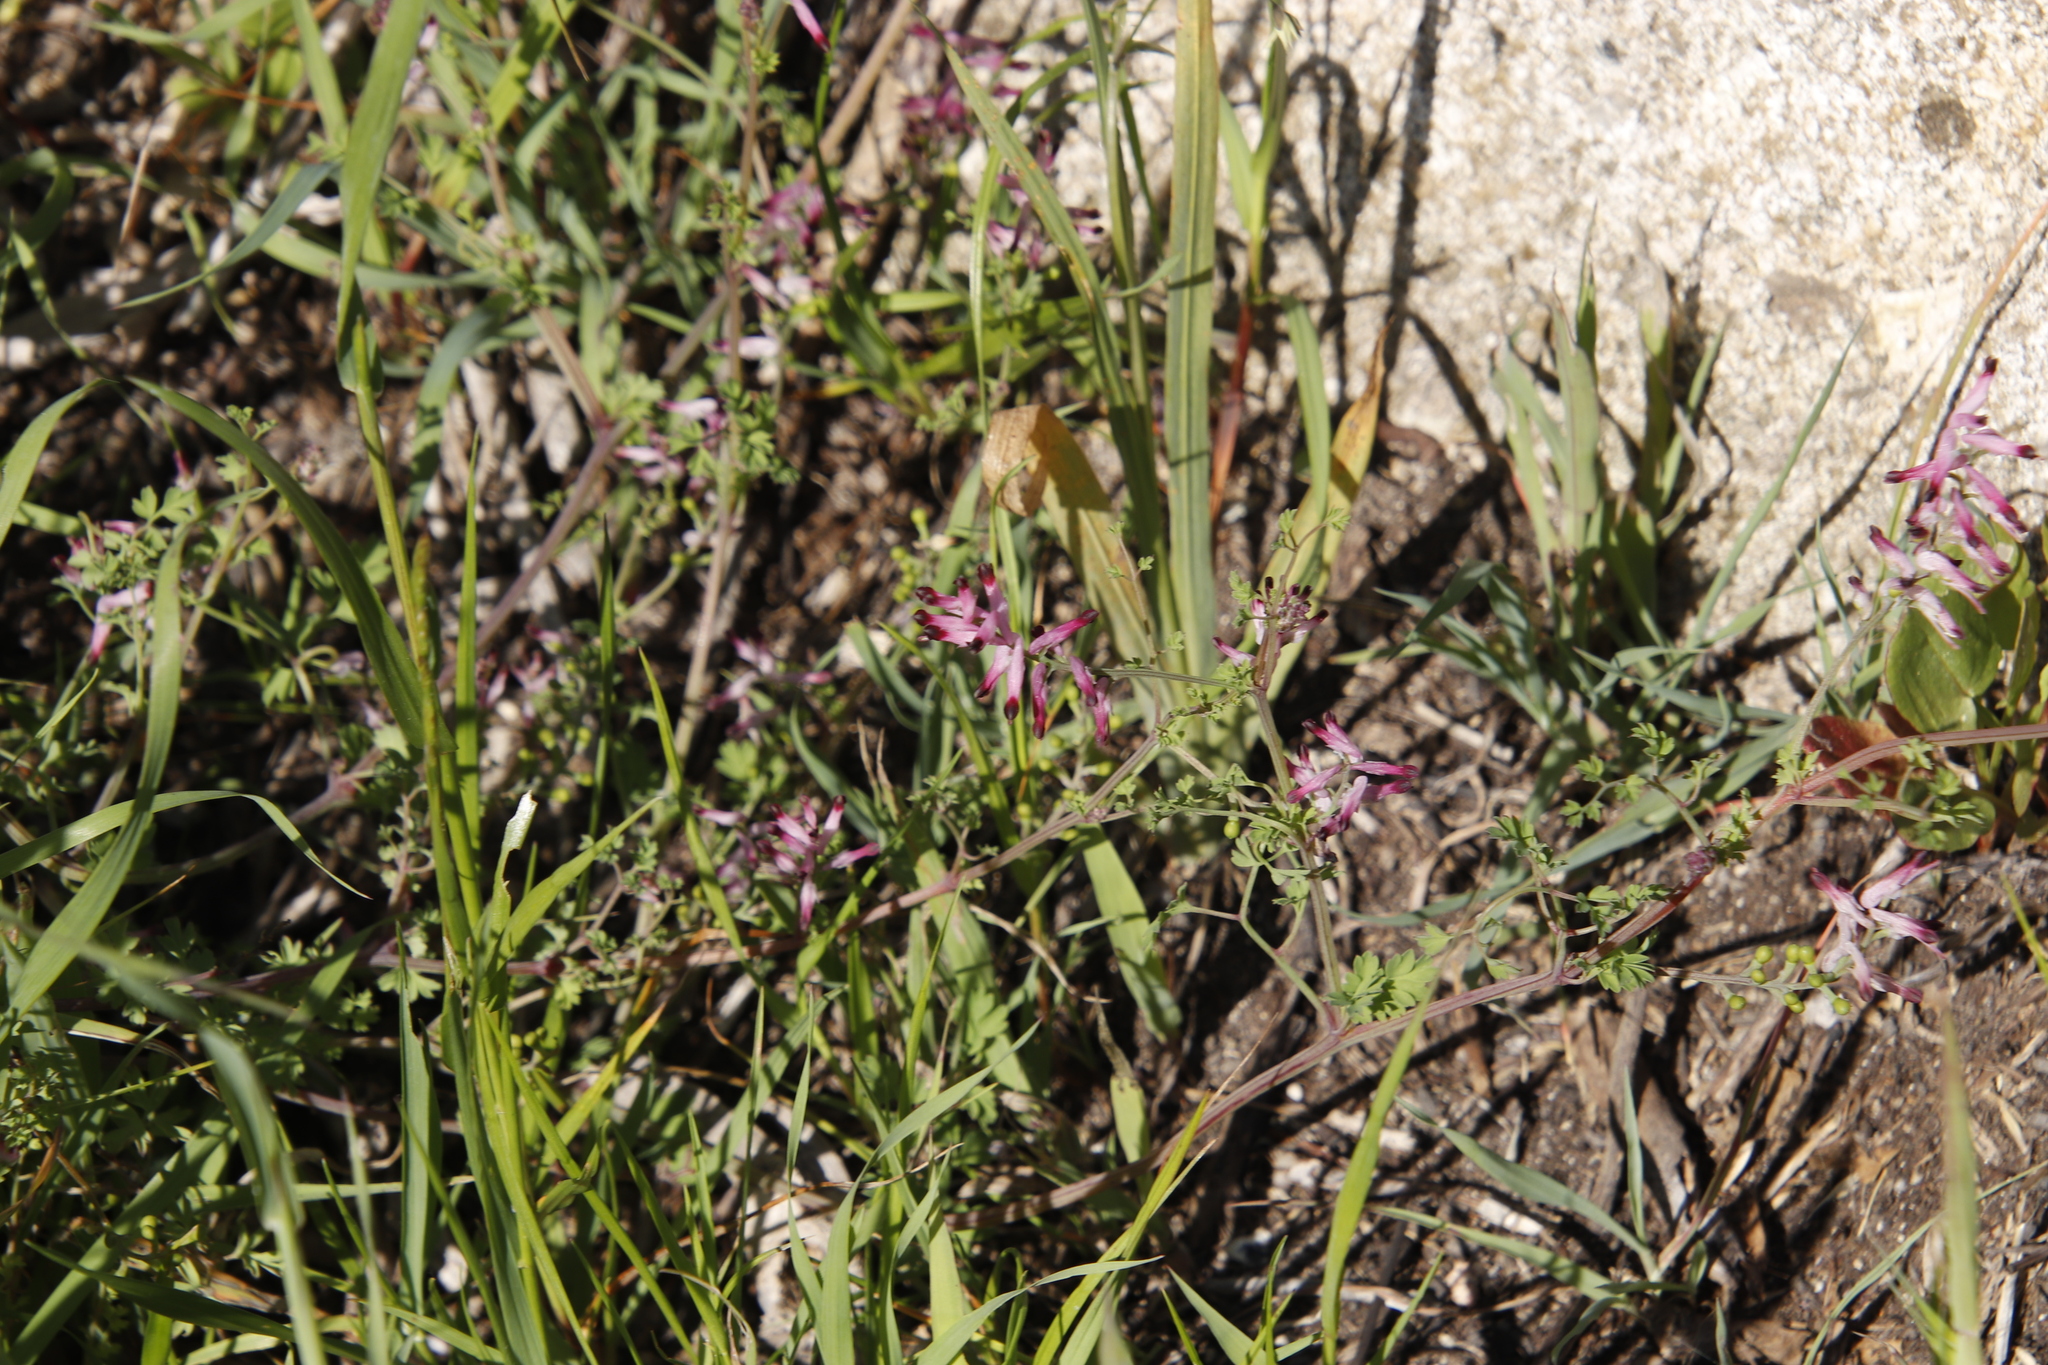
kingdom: Plantae
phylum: Tracheophyta
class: Magnoliopsida
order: Ranunculales
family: Papaveraceae
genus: Fumaria
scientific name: Fumaria muralis
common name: Common ramping-fumitory
